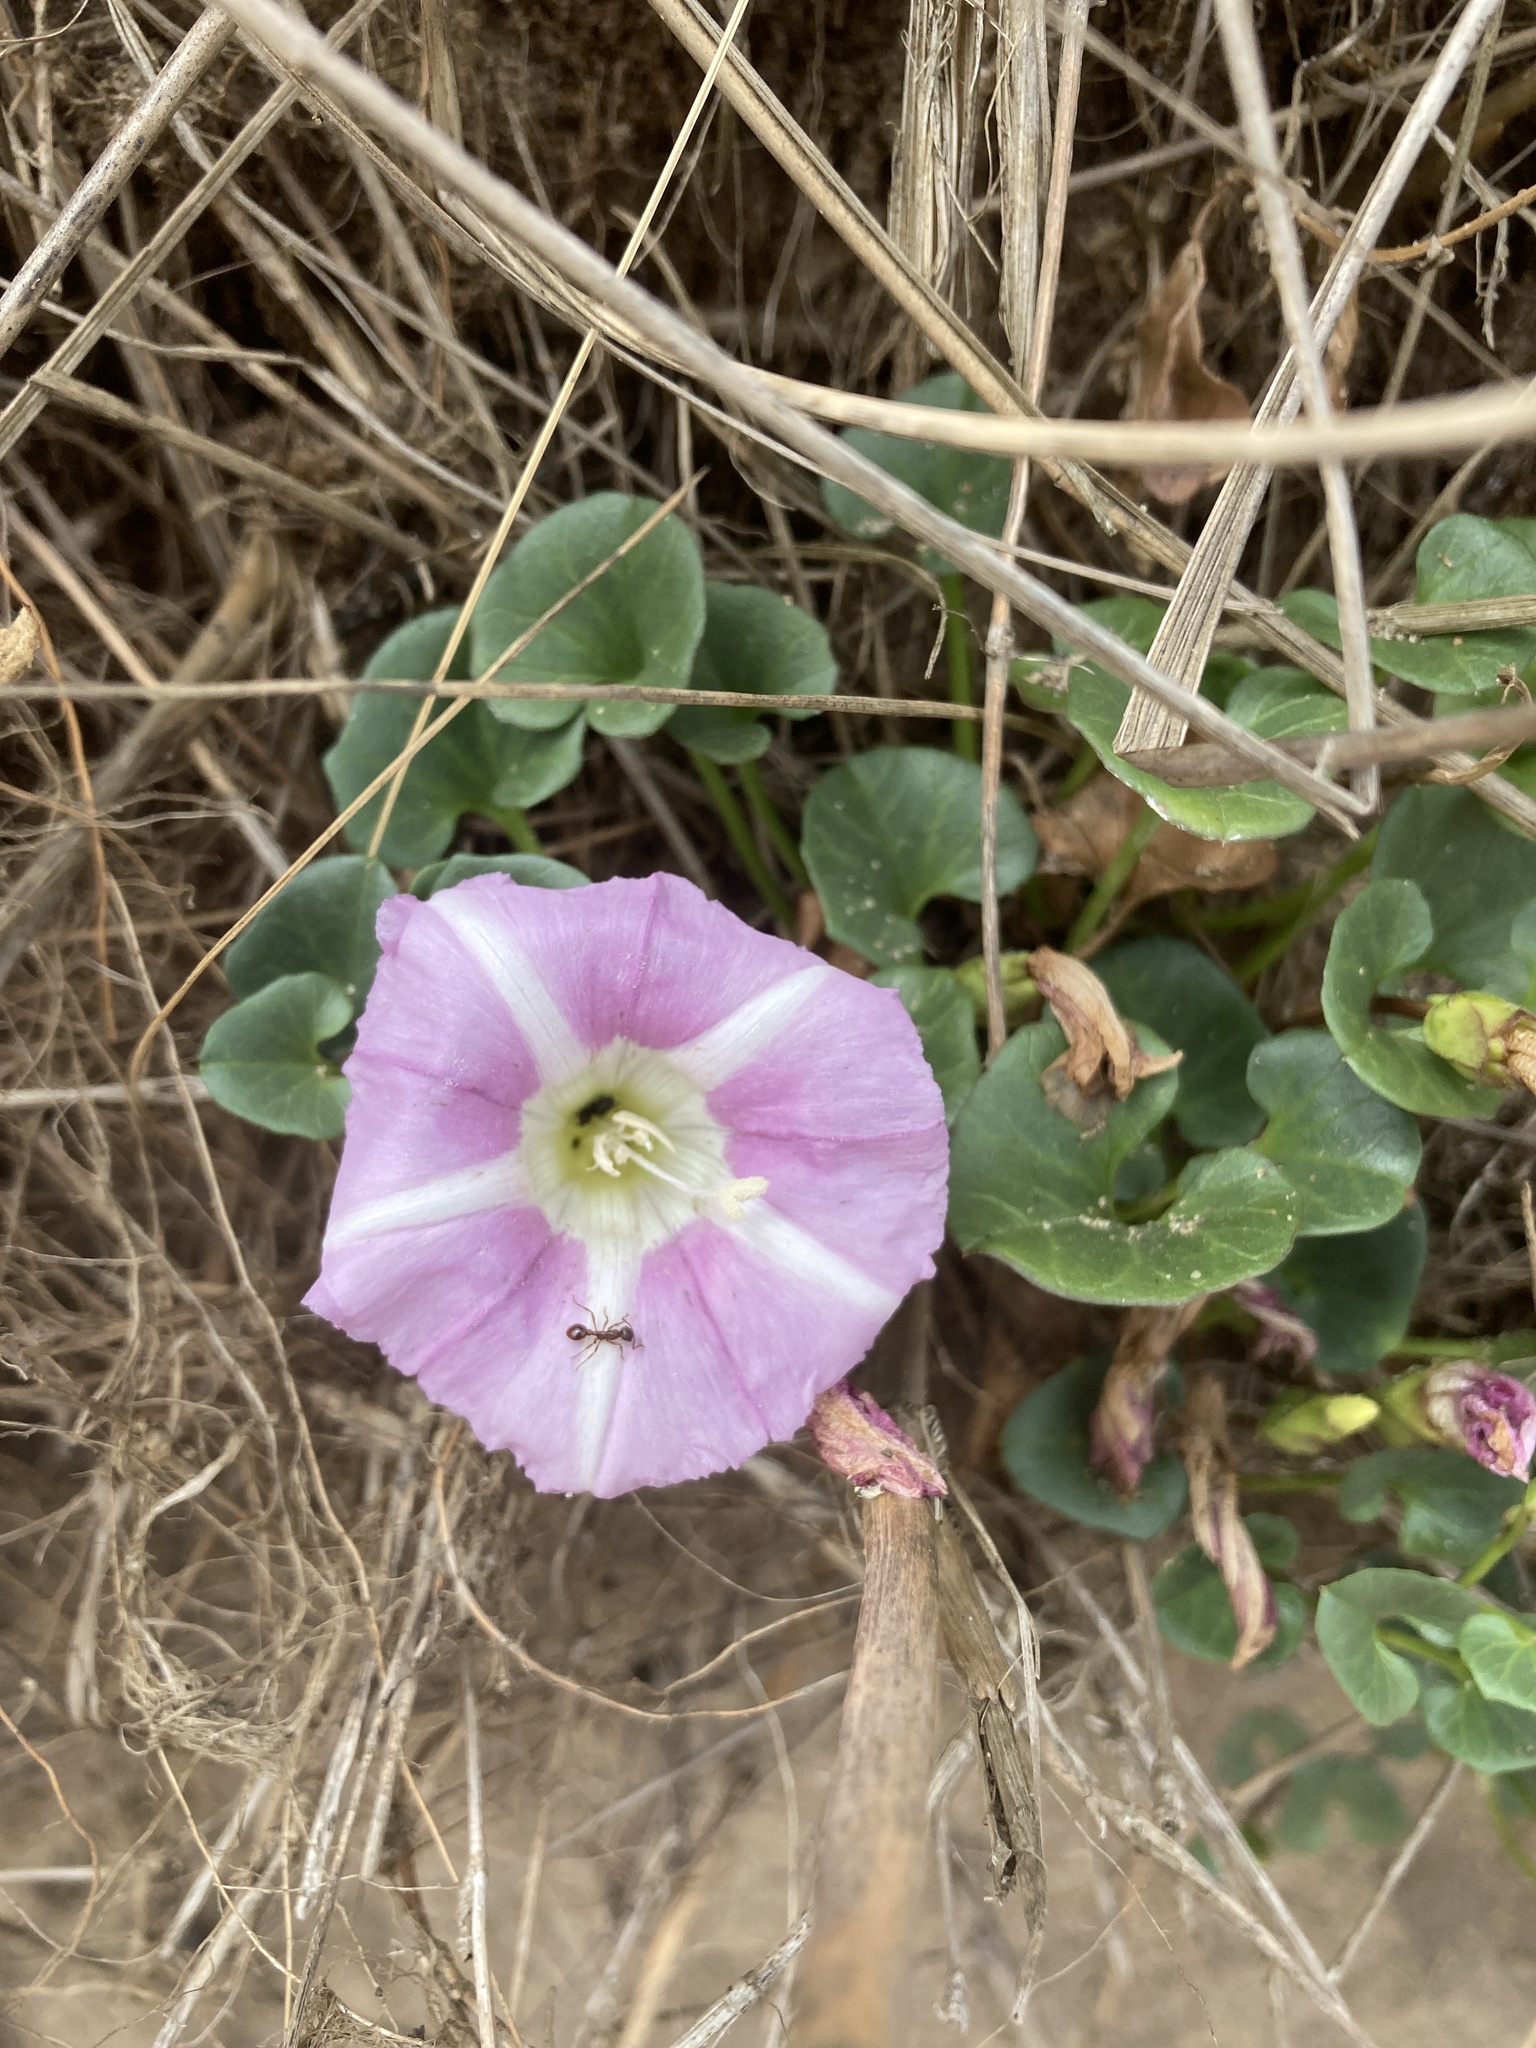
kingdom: Plantae
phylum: Tracheophyta
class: Magnoliopsida
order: Solanales
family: Convolvulaceae
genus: Calystegia
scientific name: Calystegia soldanella
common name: Sea bindweed
